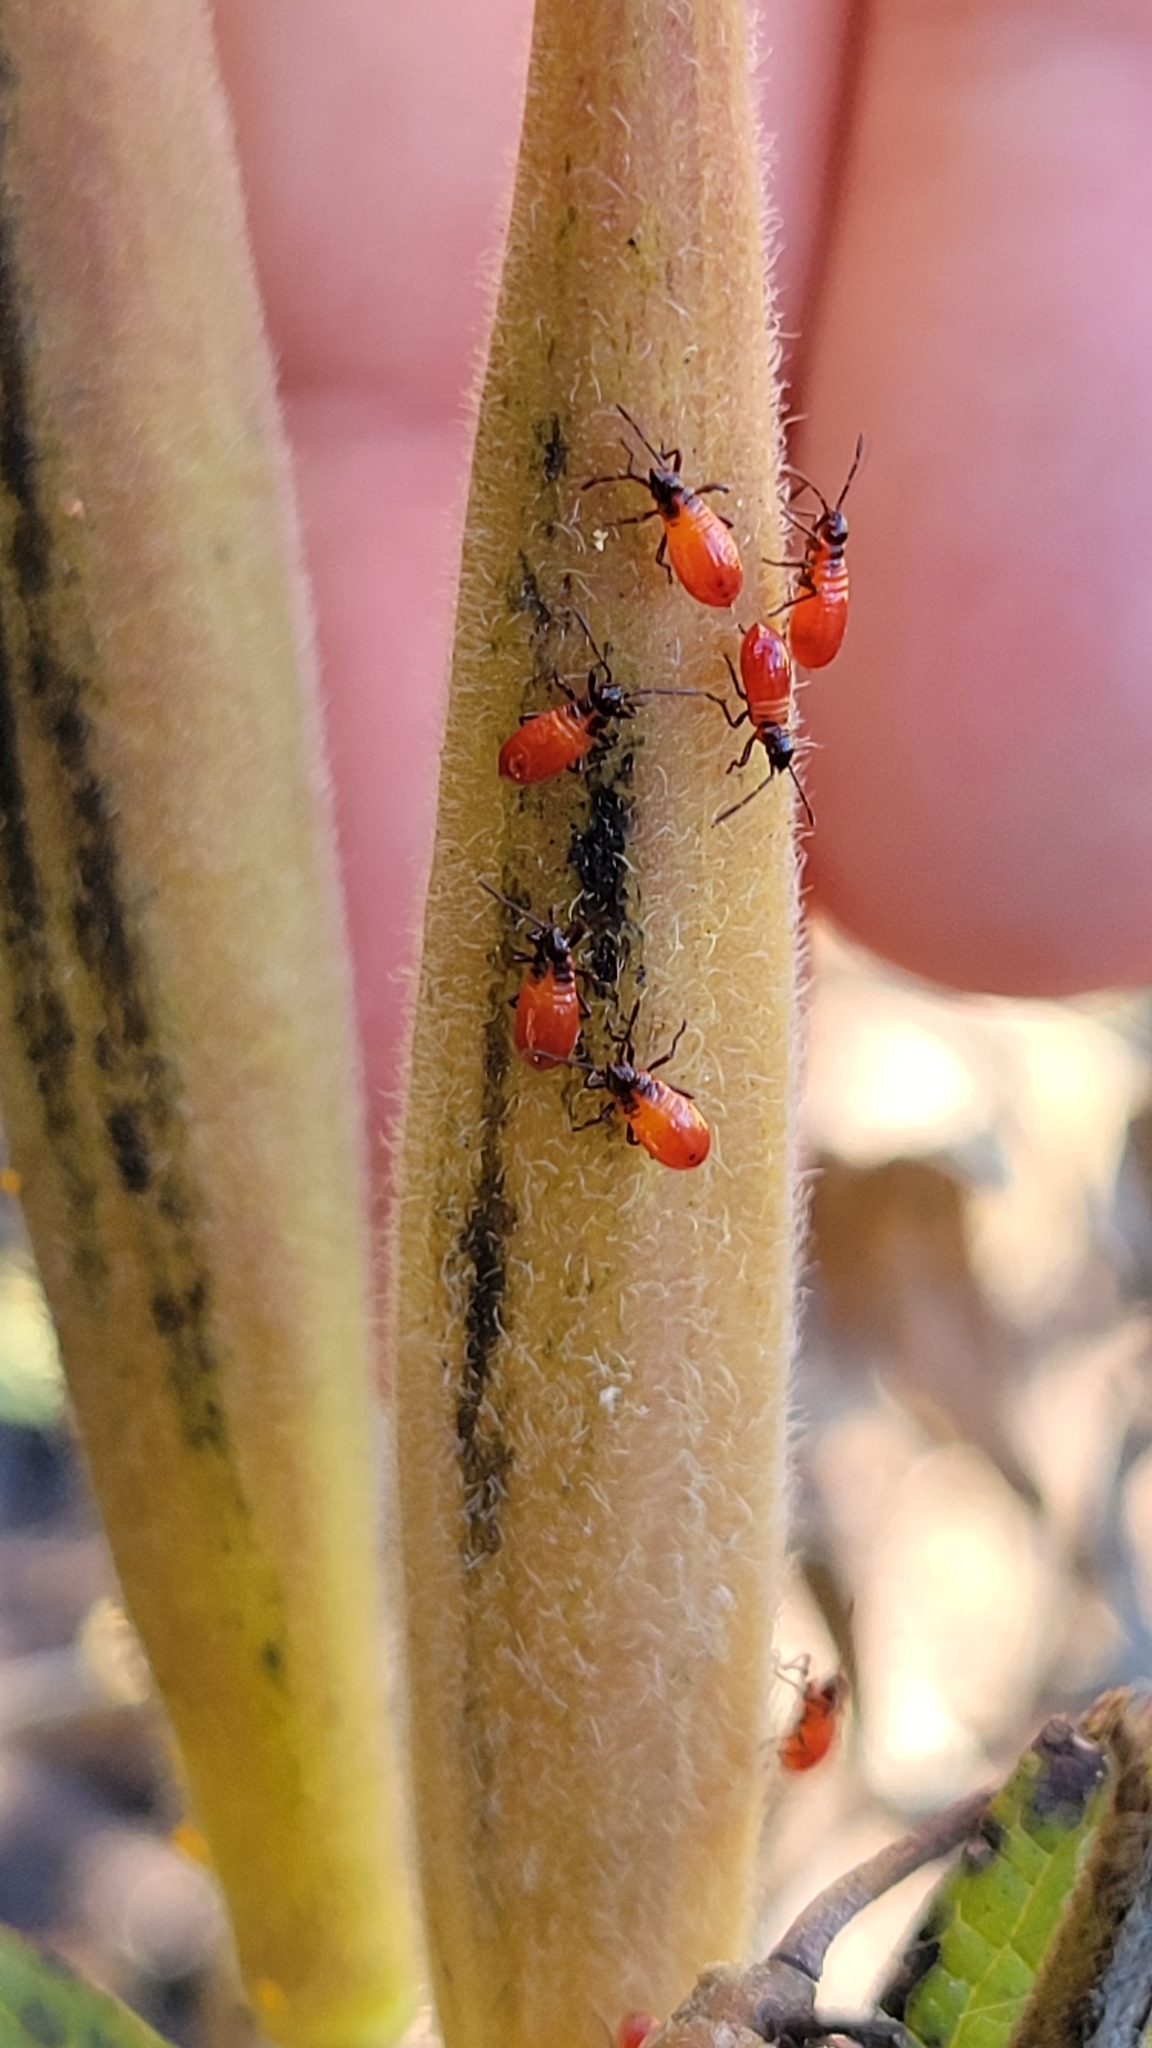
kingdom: Animalia
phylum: Arthropoda
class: Insecta
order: Hemiptera
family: Lygaeidae
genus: Oncopeltus
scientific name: Oncopeltus fasciatus
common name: Large milkweed bug
